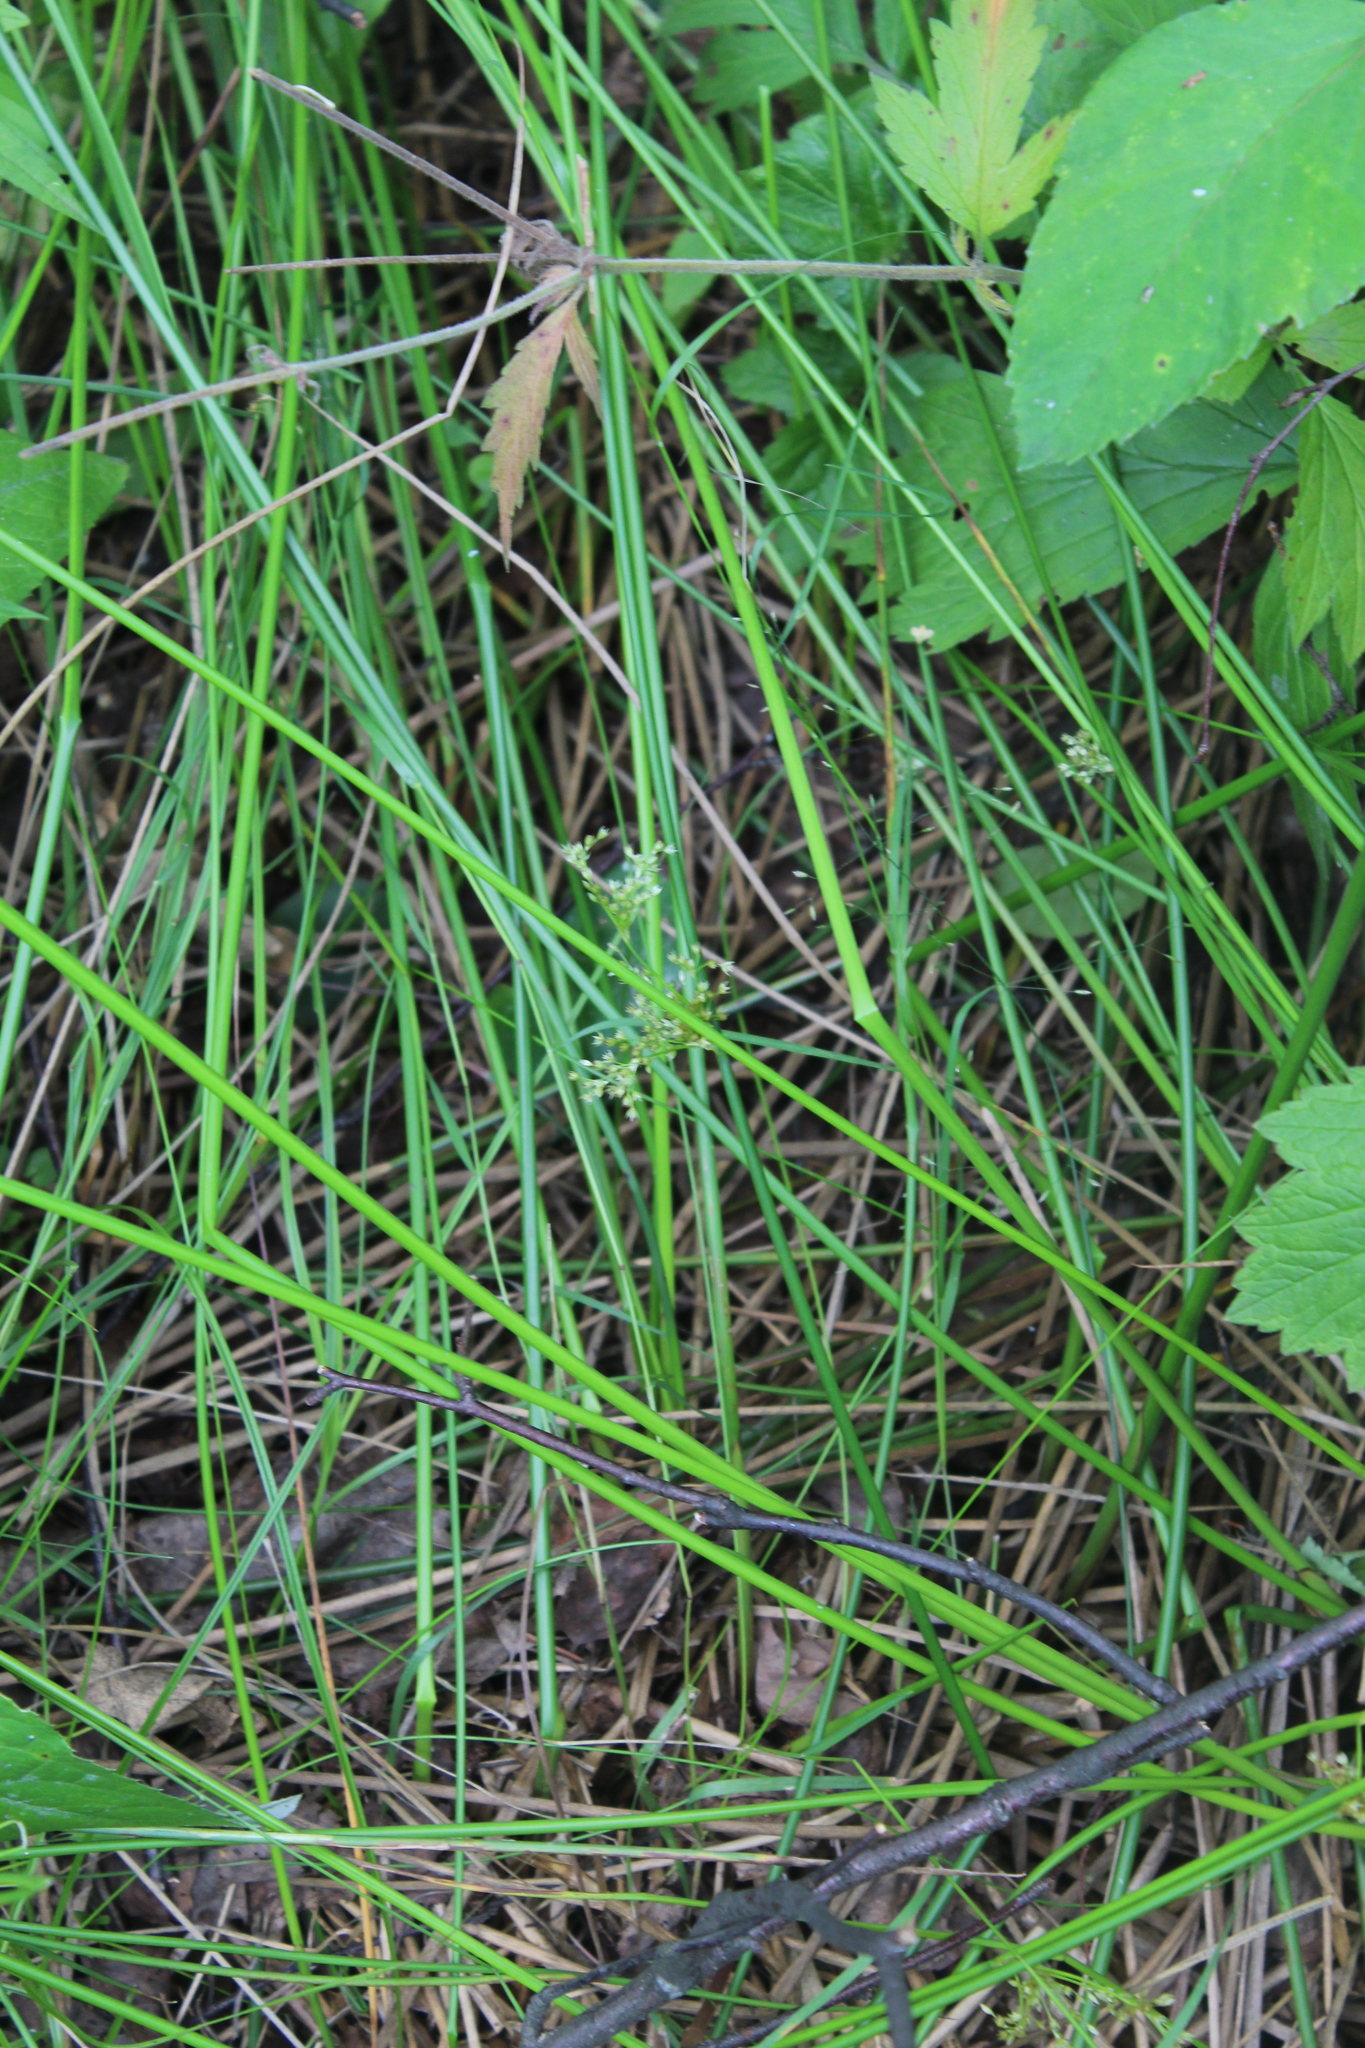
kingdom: Plantae
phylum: Tracheophyta
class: Liliopsida
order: Poales
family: Juncaceae
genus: Juncus
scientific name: Juncus effusus
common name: Soft rush
